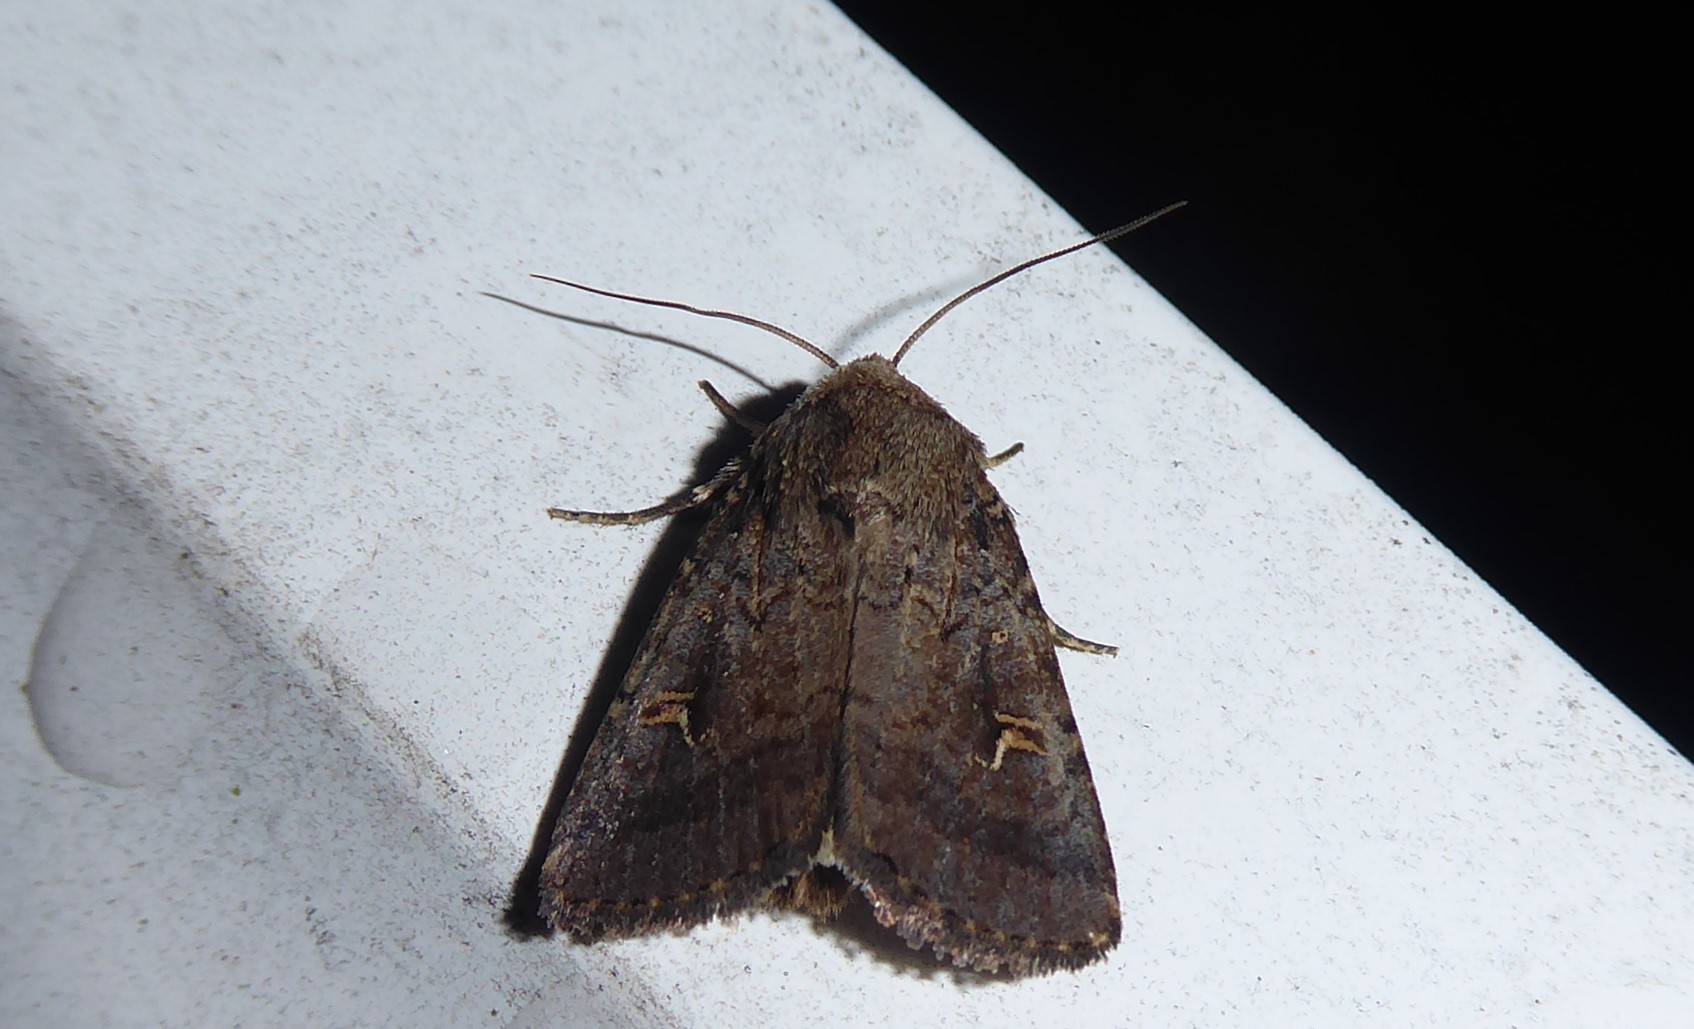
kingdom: Animalia
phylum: Arthropoda
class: Insecta
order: Lepidoptera
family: Noctuidae
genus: Proteuxoa
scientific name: Proteuxoa tetronycha
